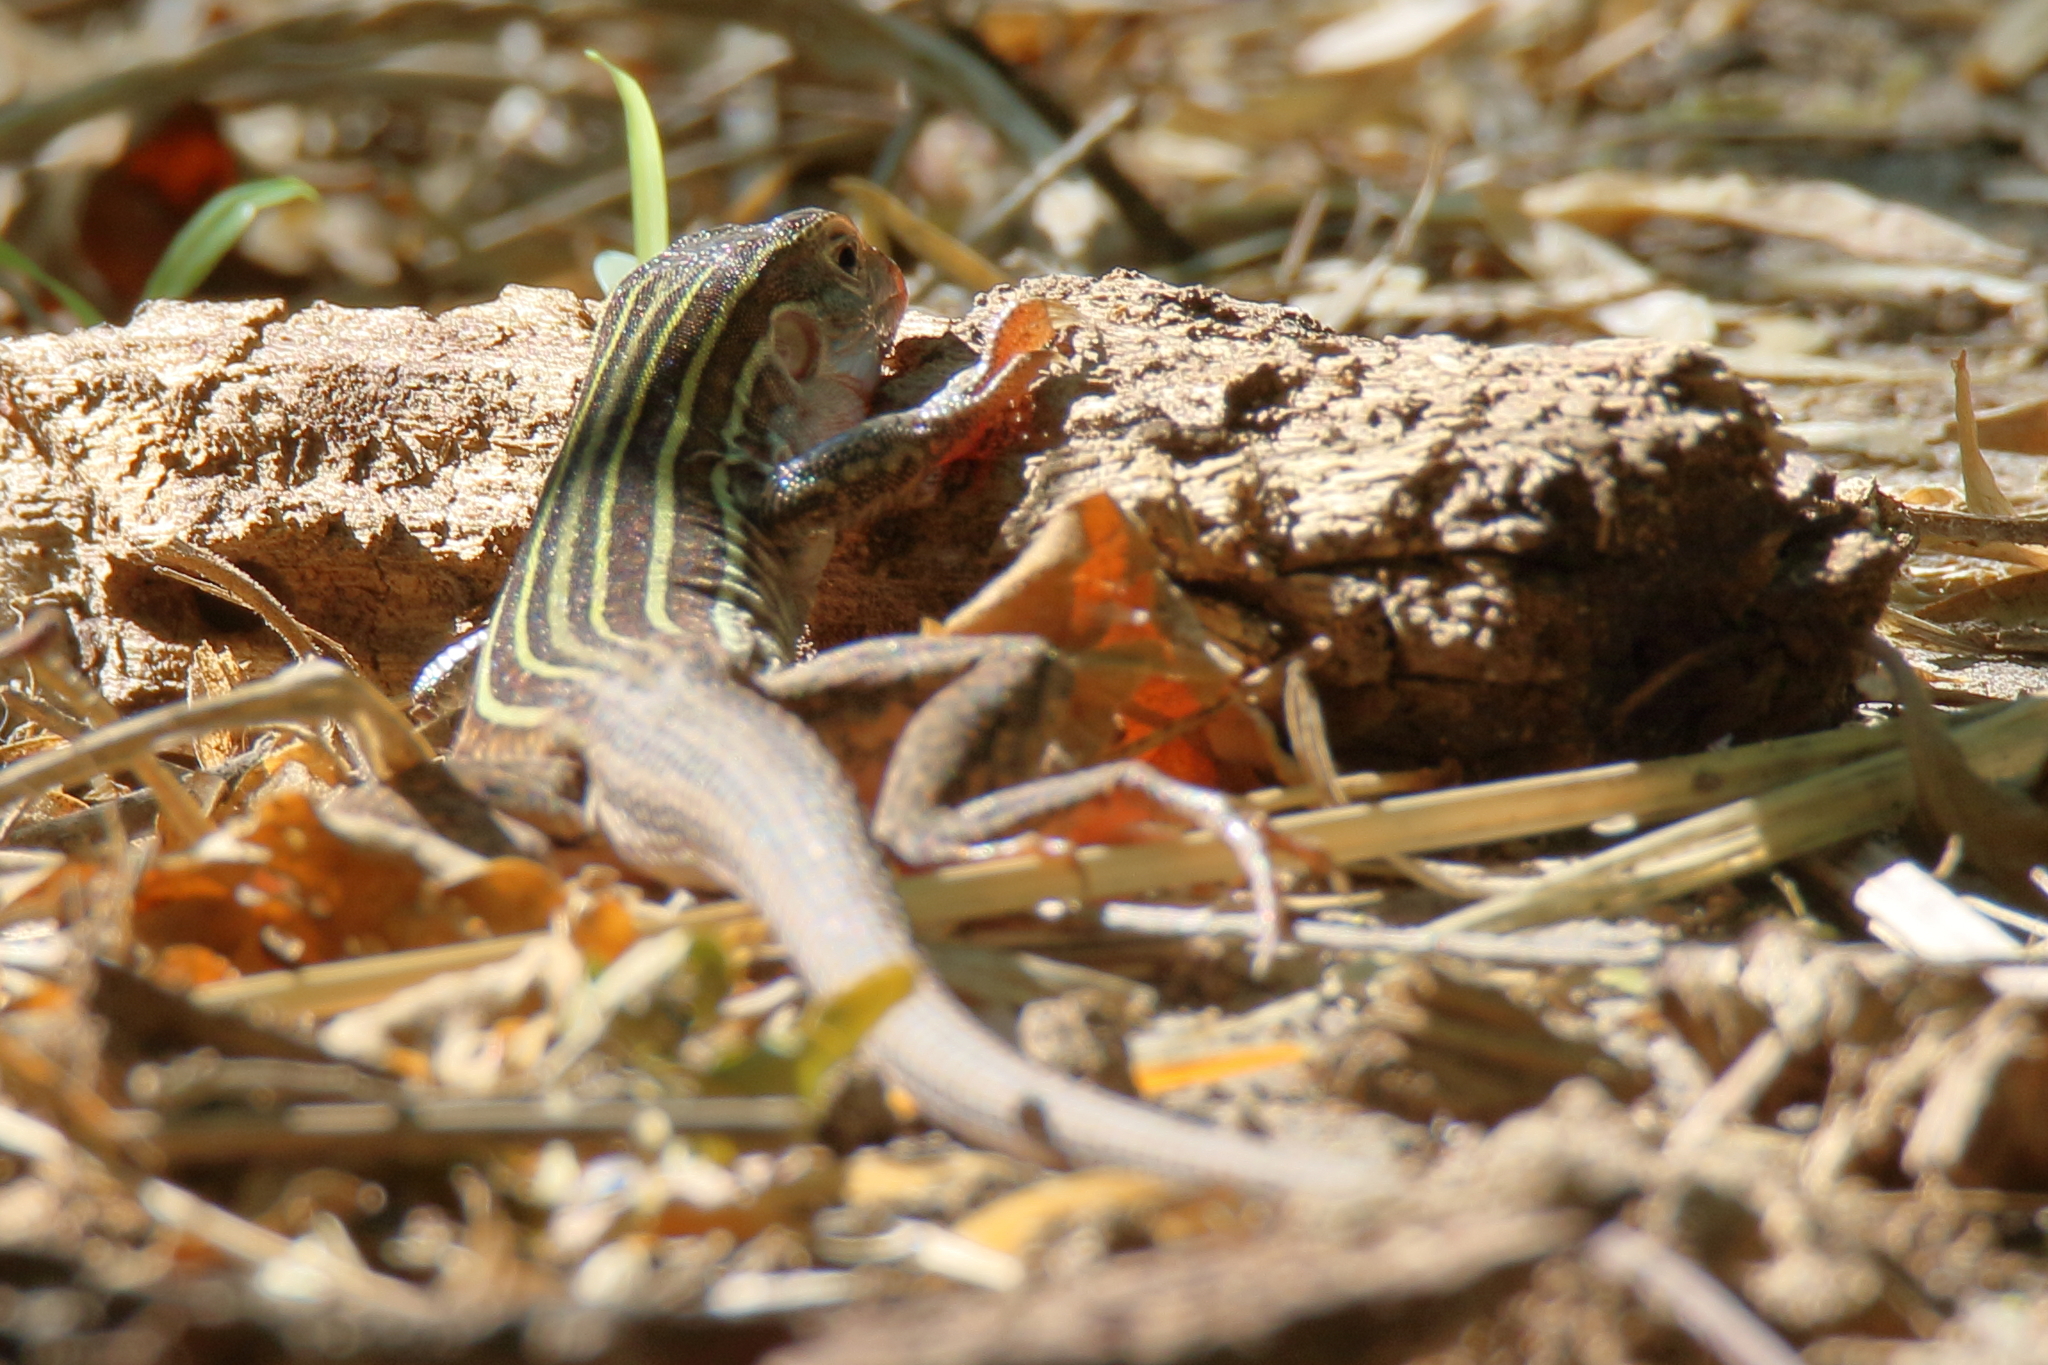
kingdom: Animalia
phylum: Chordata
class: Squamata
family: Teiidae
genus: Aspidoscelis
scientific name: Aspidoscelis gularis
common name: Eastern spotted whiptail
